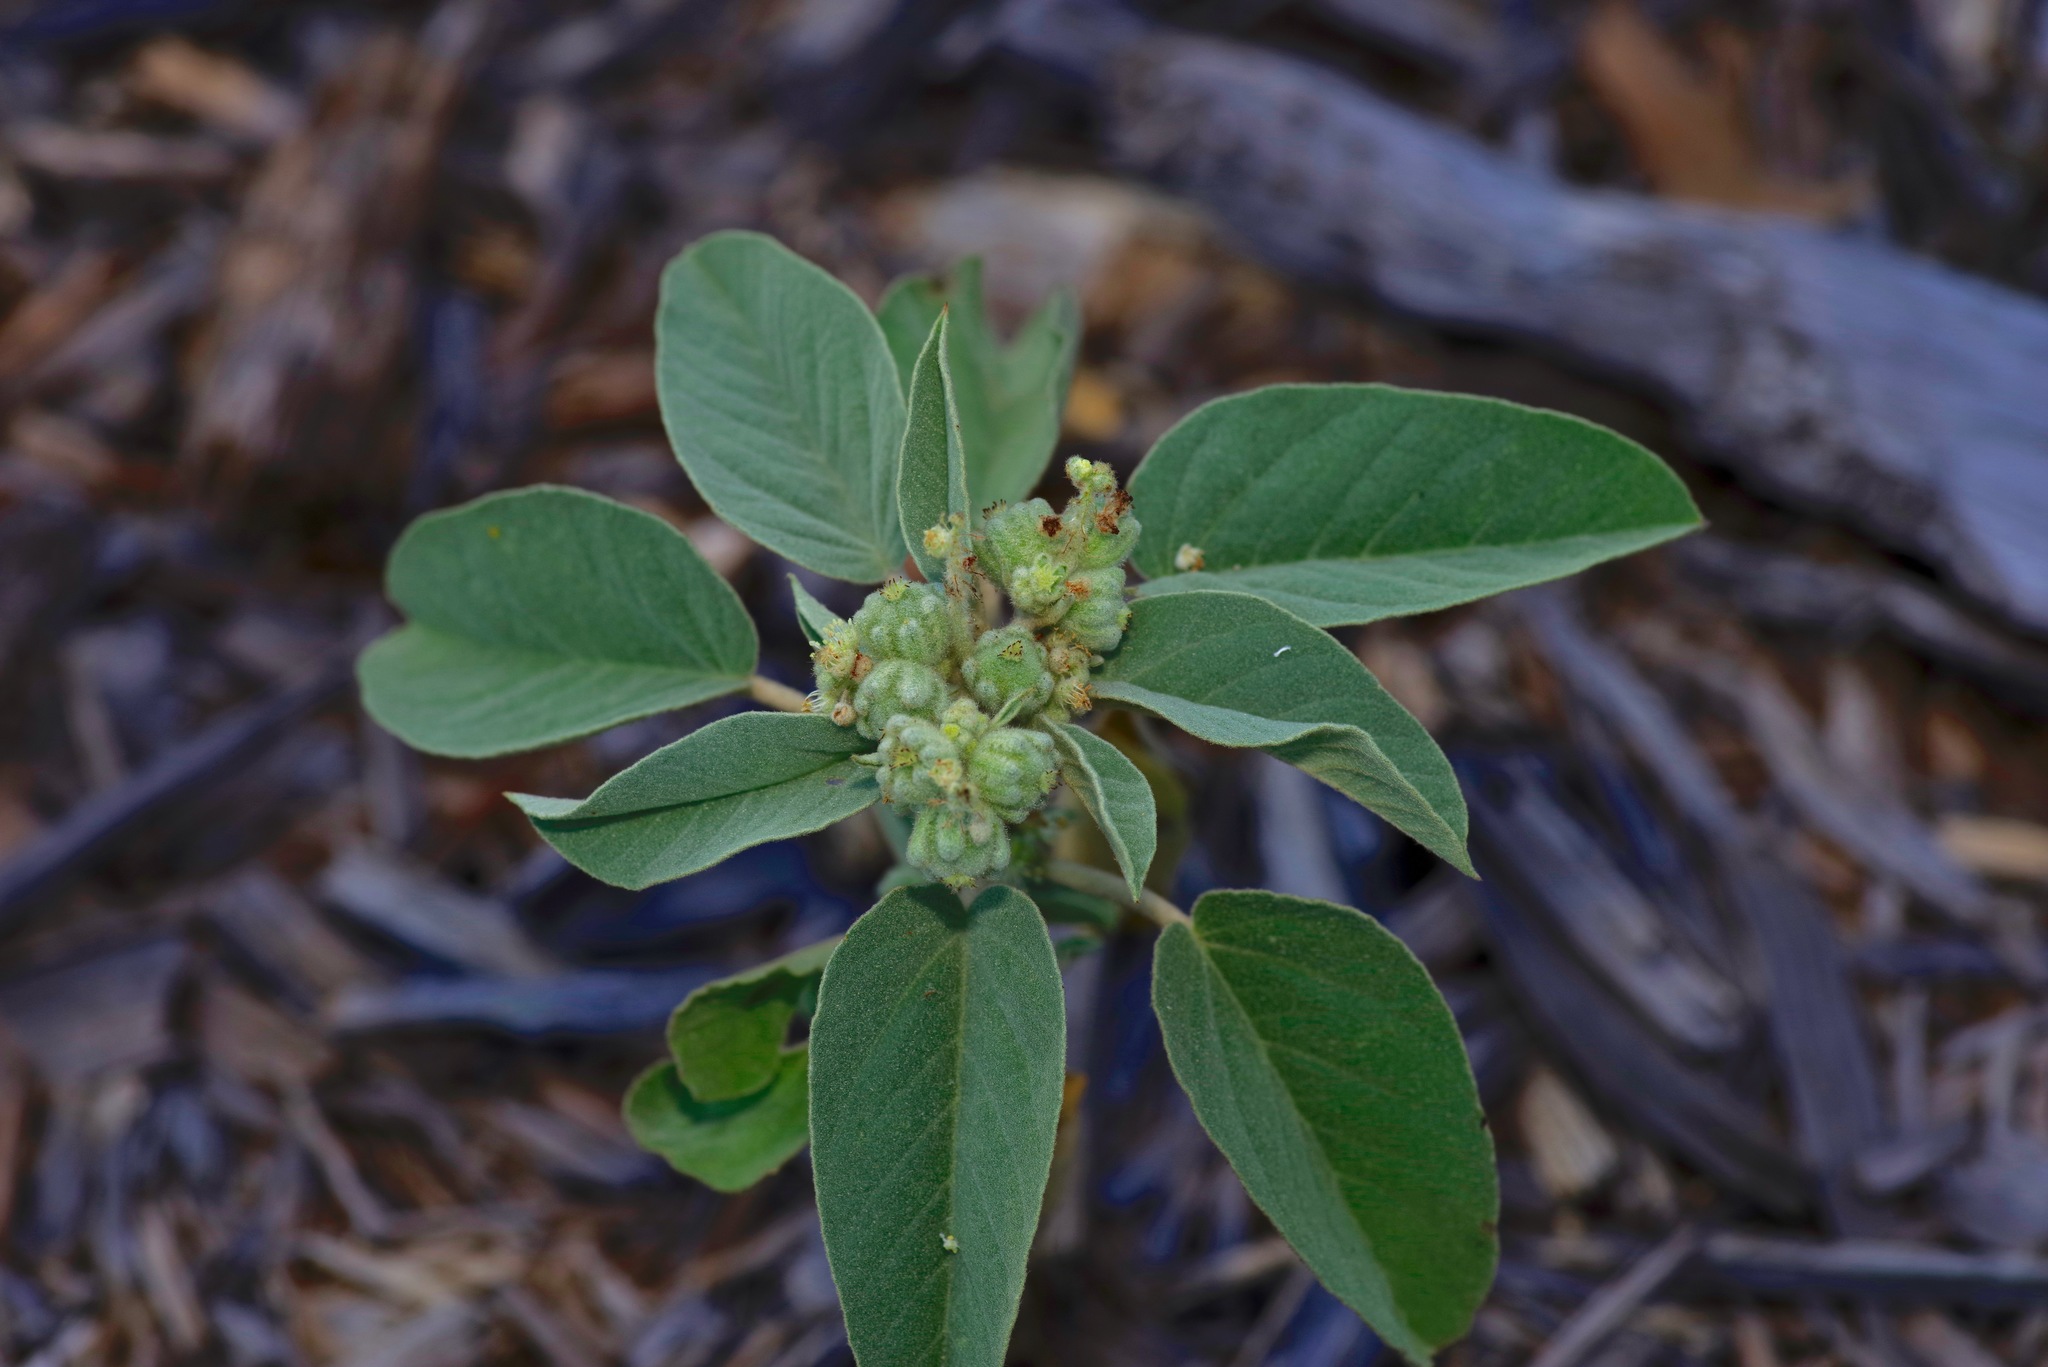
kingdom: Plantae
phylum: Tracheophyta
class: Magnoliopsida
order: Malpighiales
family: Euphorbiaceae
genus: Croton
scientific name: Croton lindheimeri
